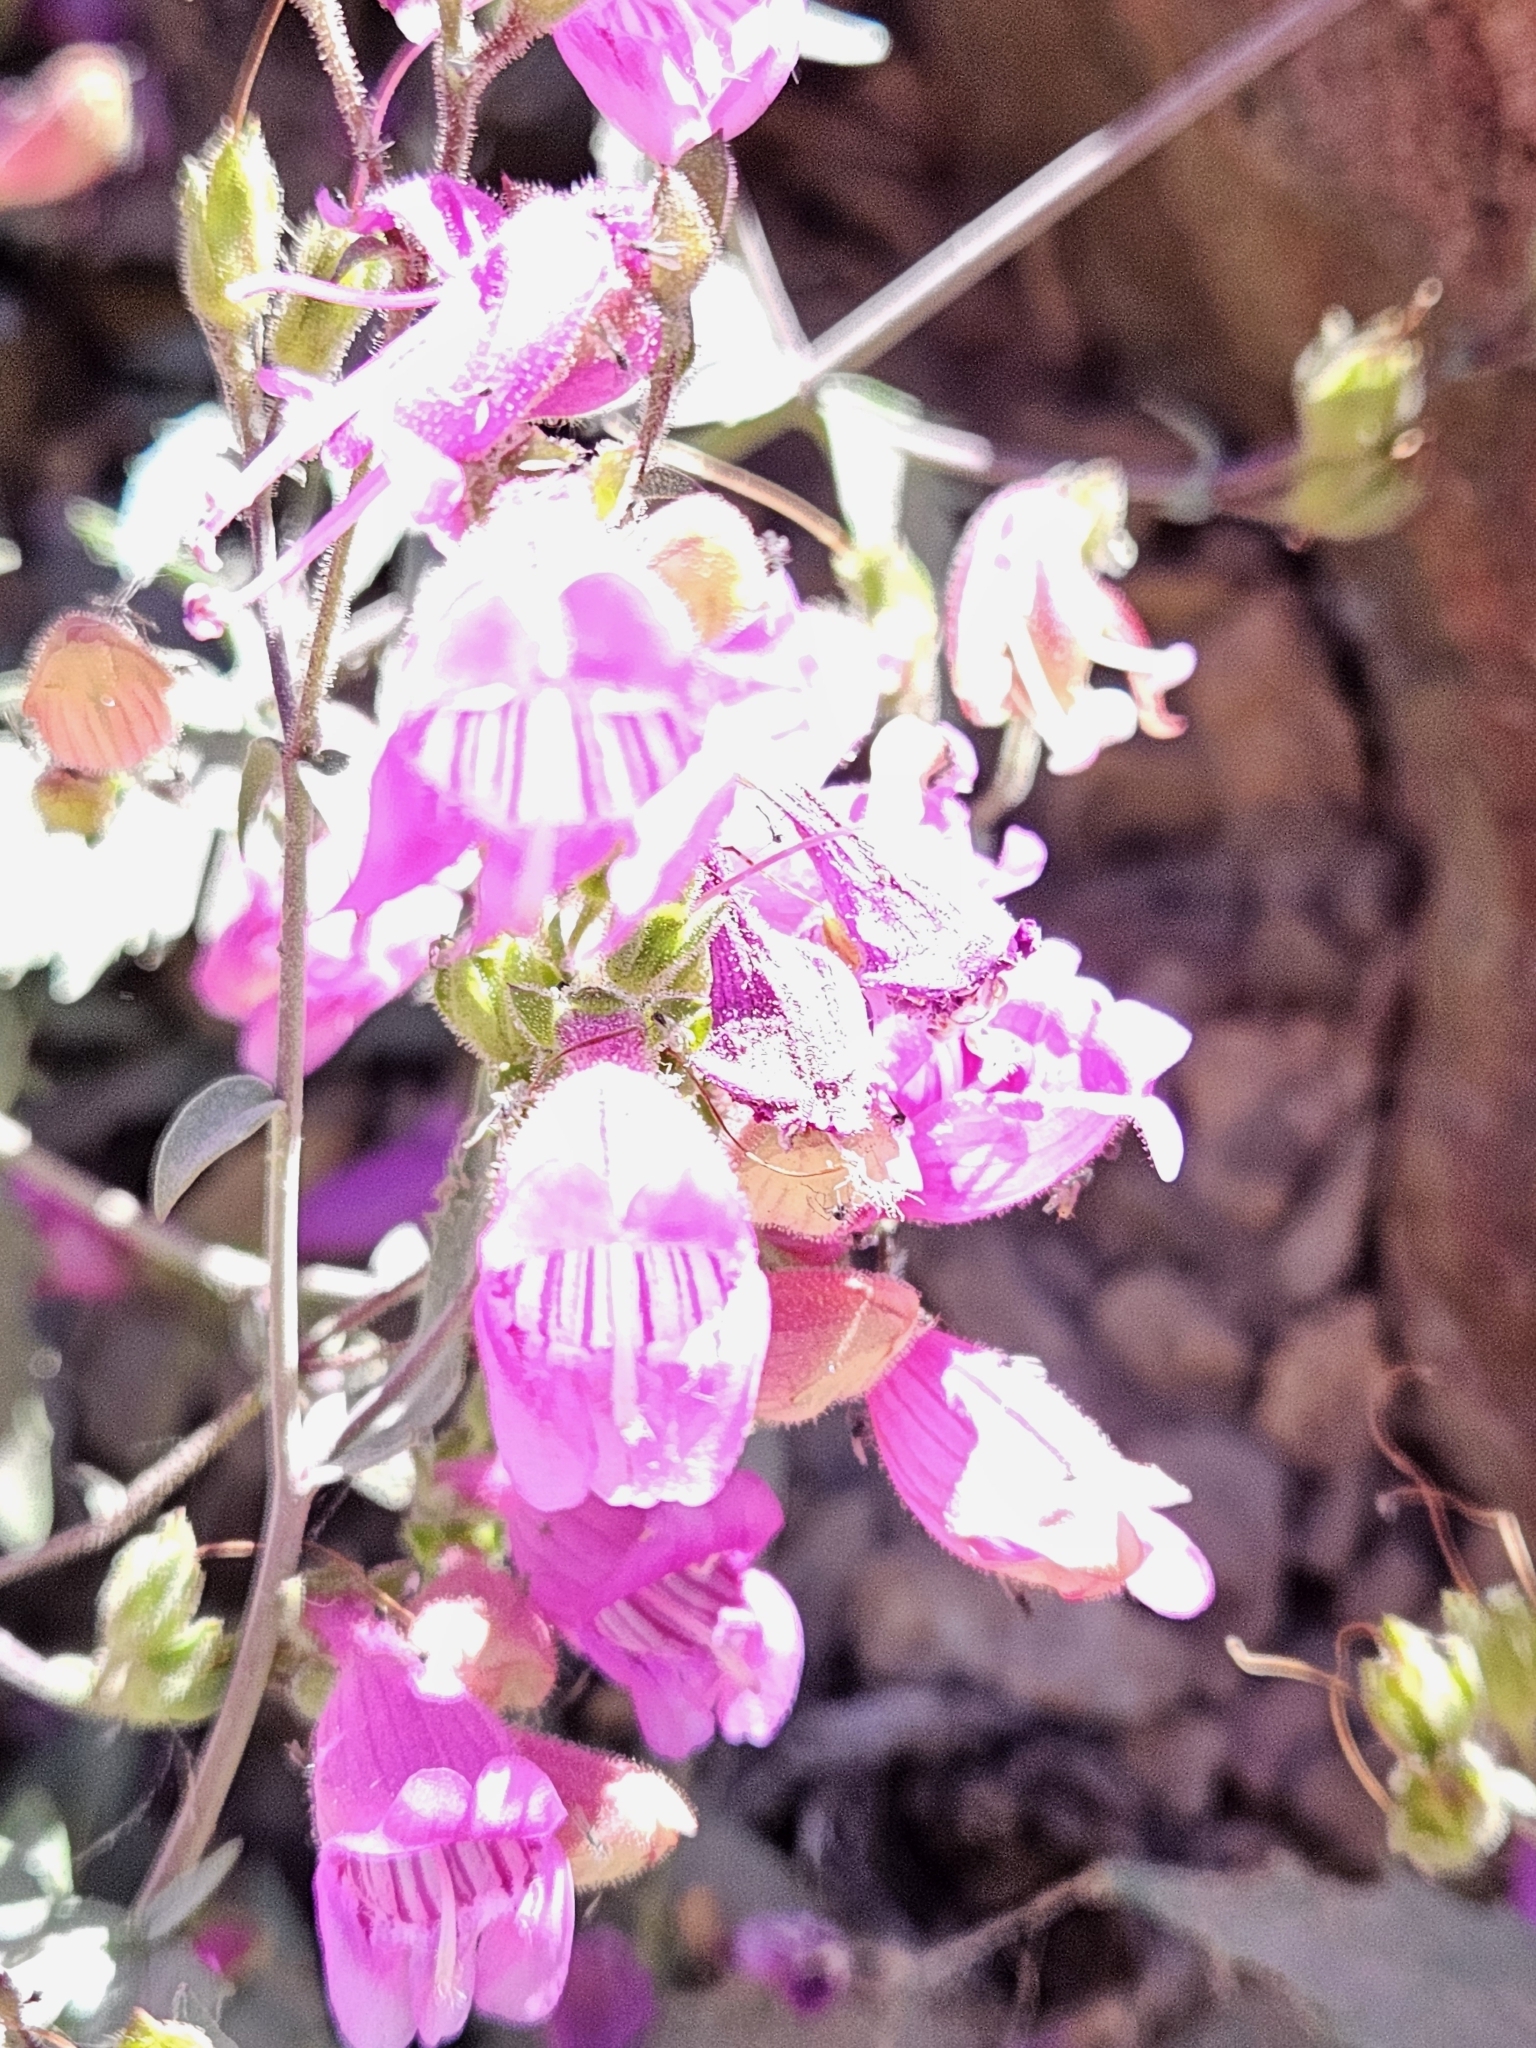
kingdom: Plantae
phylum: Tracheophyta
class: Magnoliopsida
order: Lamiales
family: Plantaginaceae
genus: Penstemon
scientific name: Penstemon richardsonii
